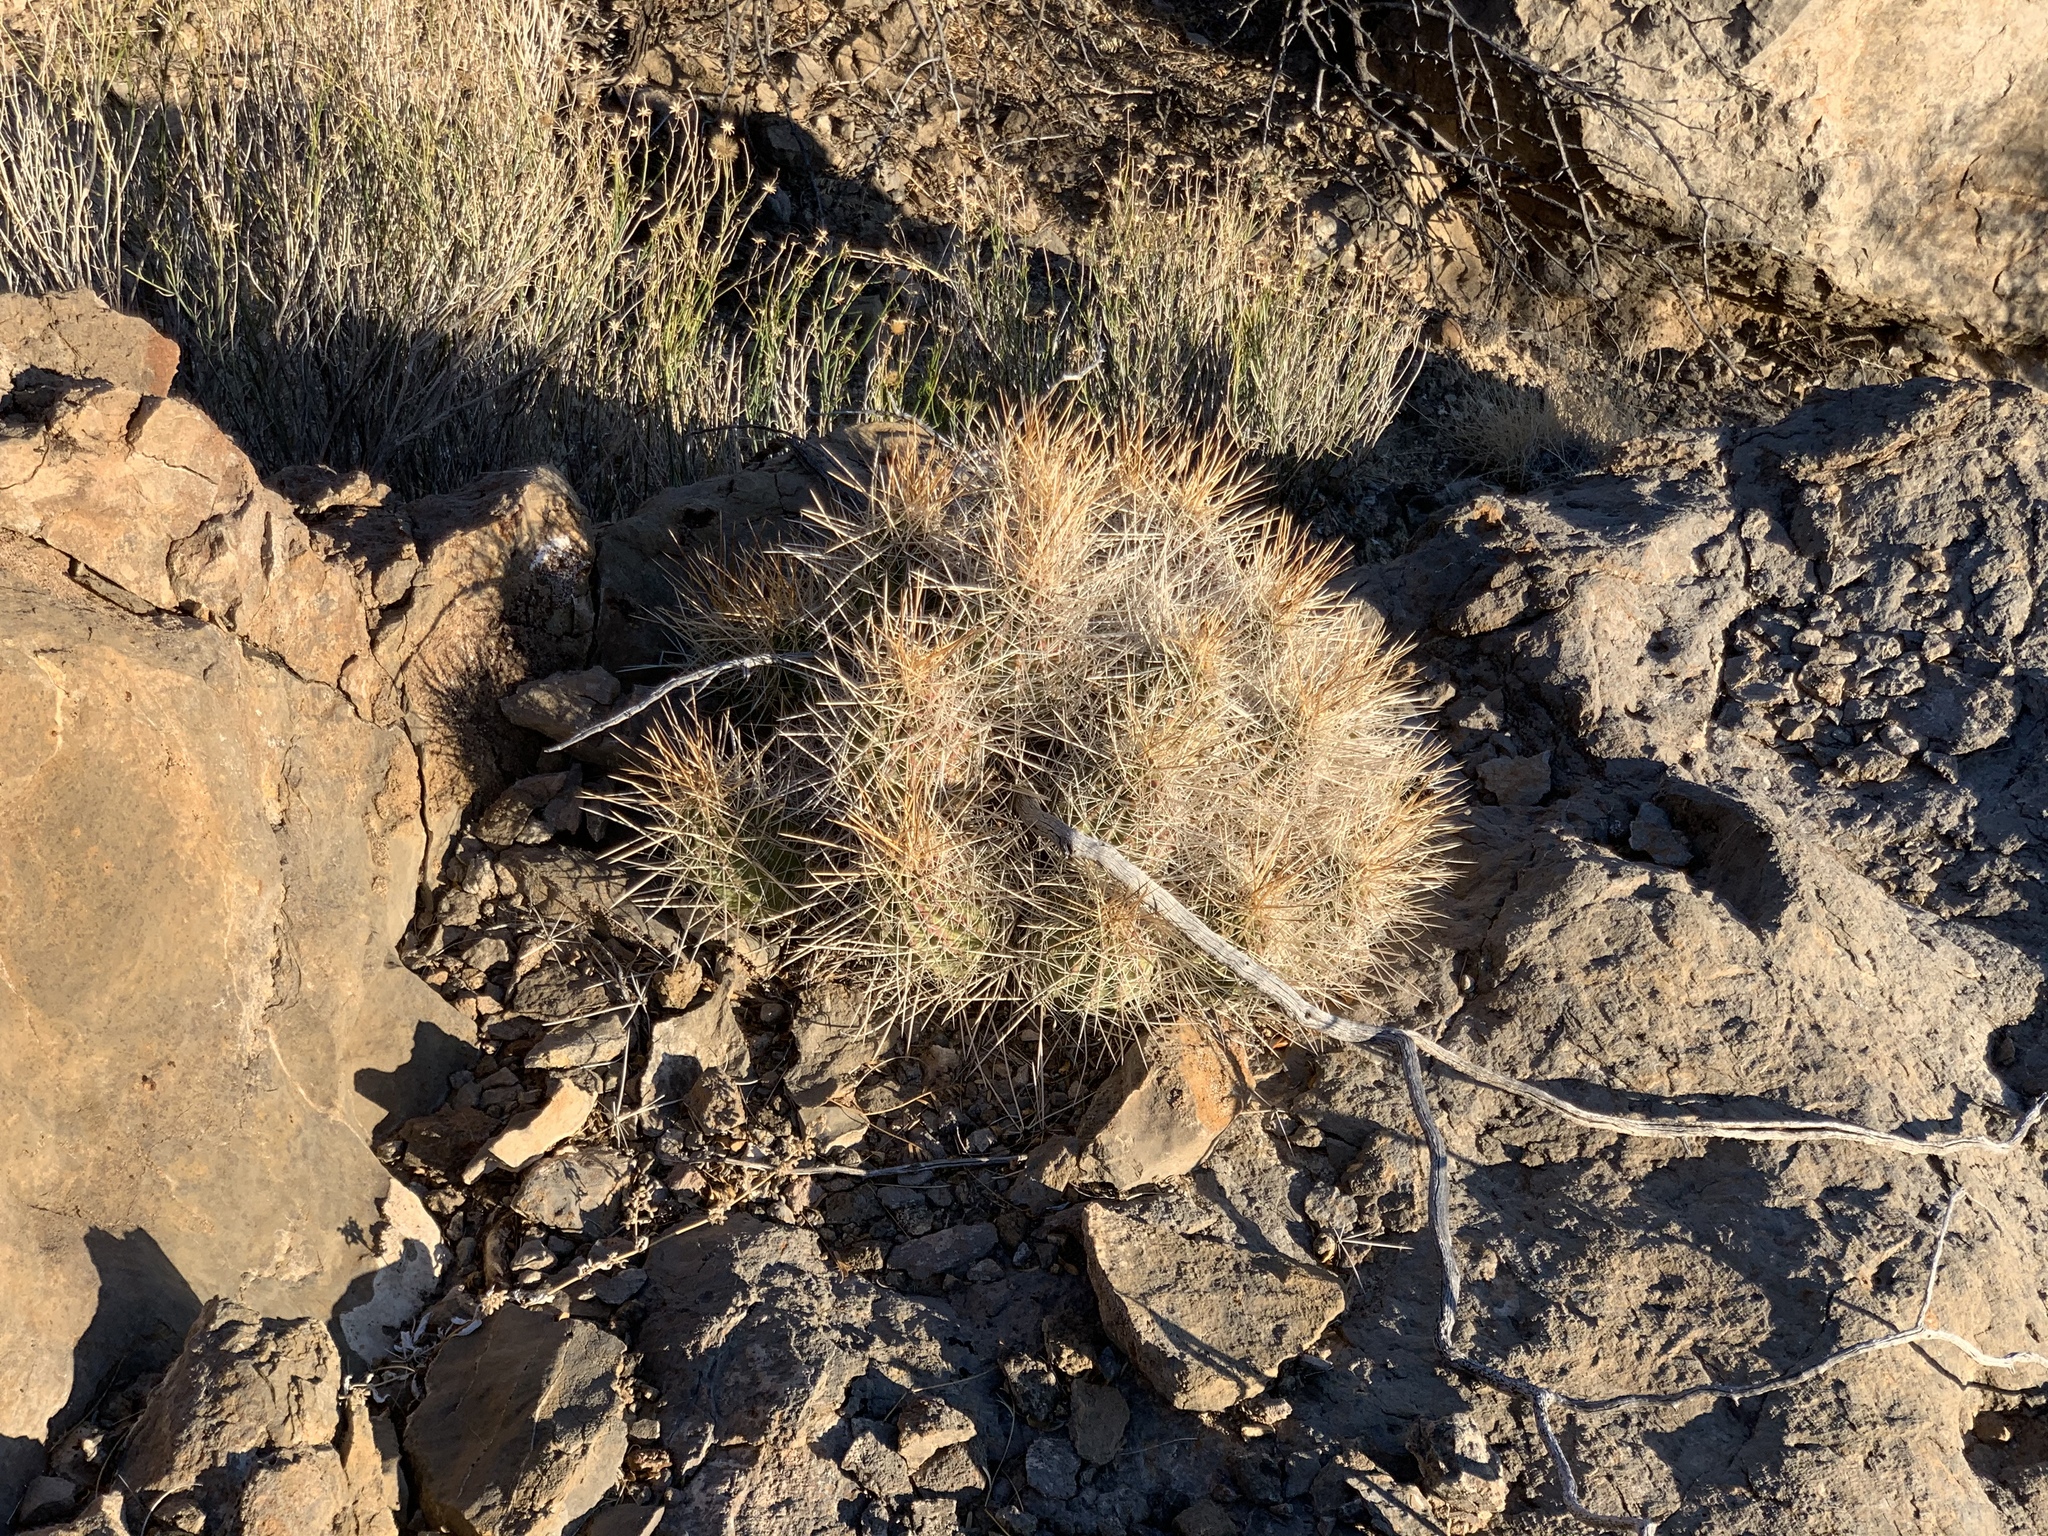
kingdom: Plantae
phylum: Tracheophyta
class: Magnoliopsida
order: Caryophyllales
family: Cactaceae
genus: Echinocereus
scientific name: Echinocereus stramineus
